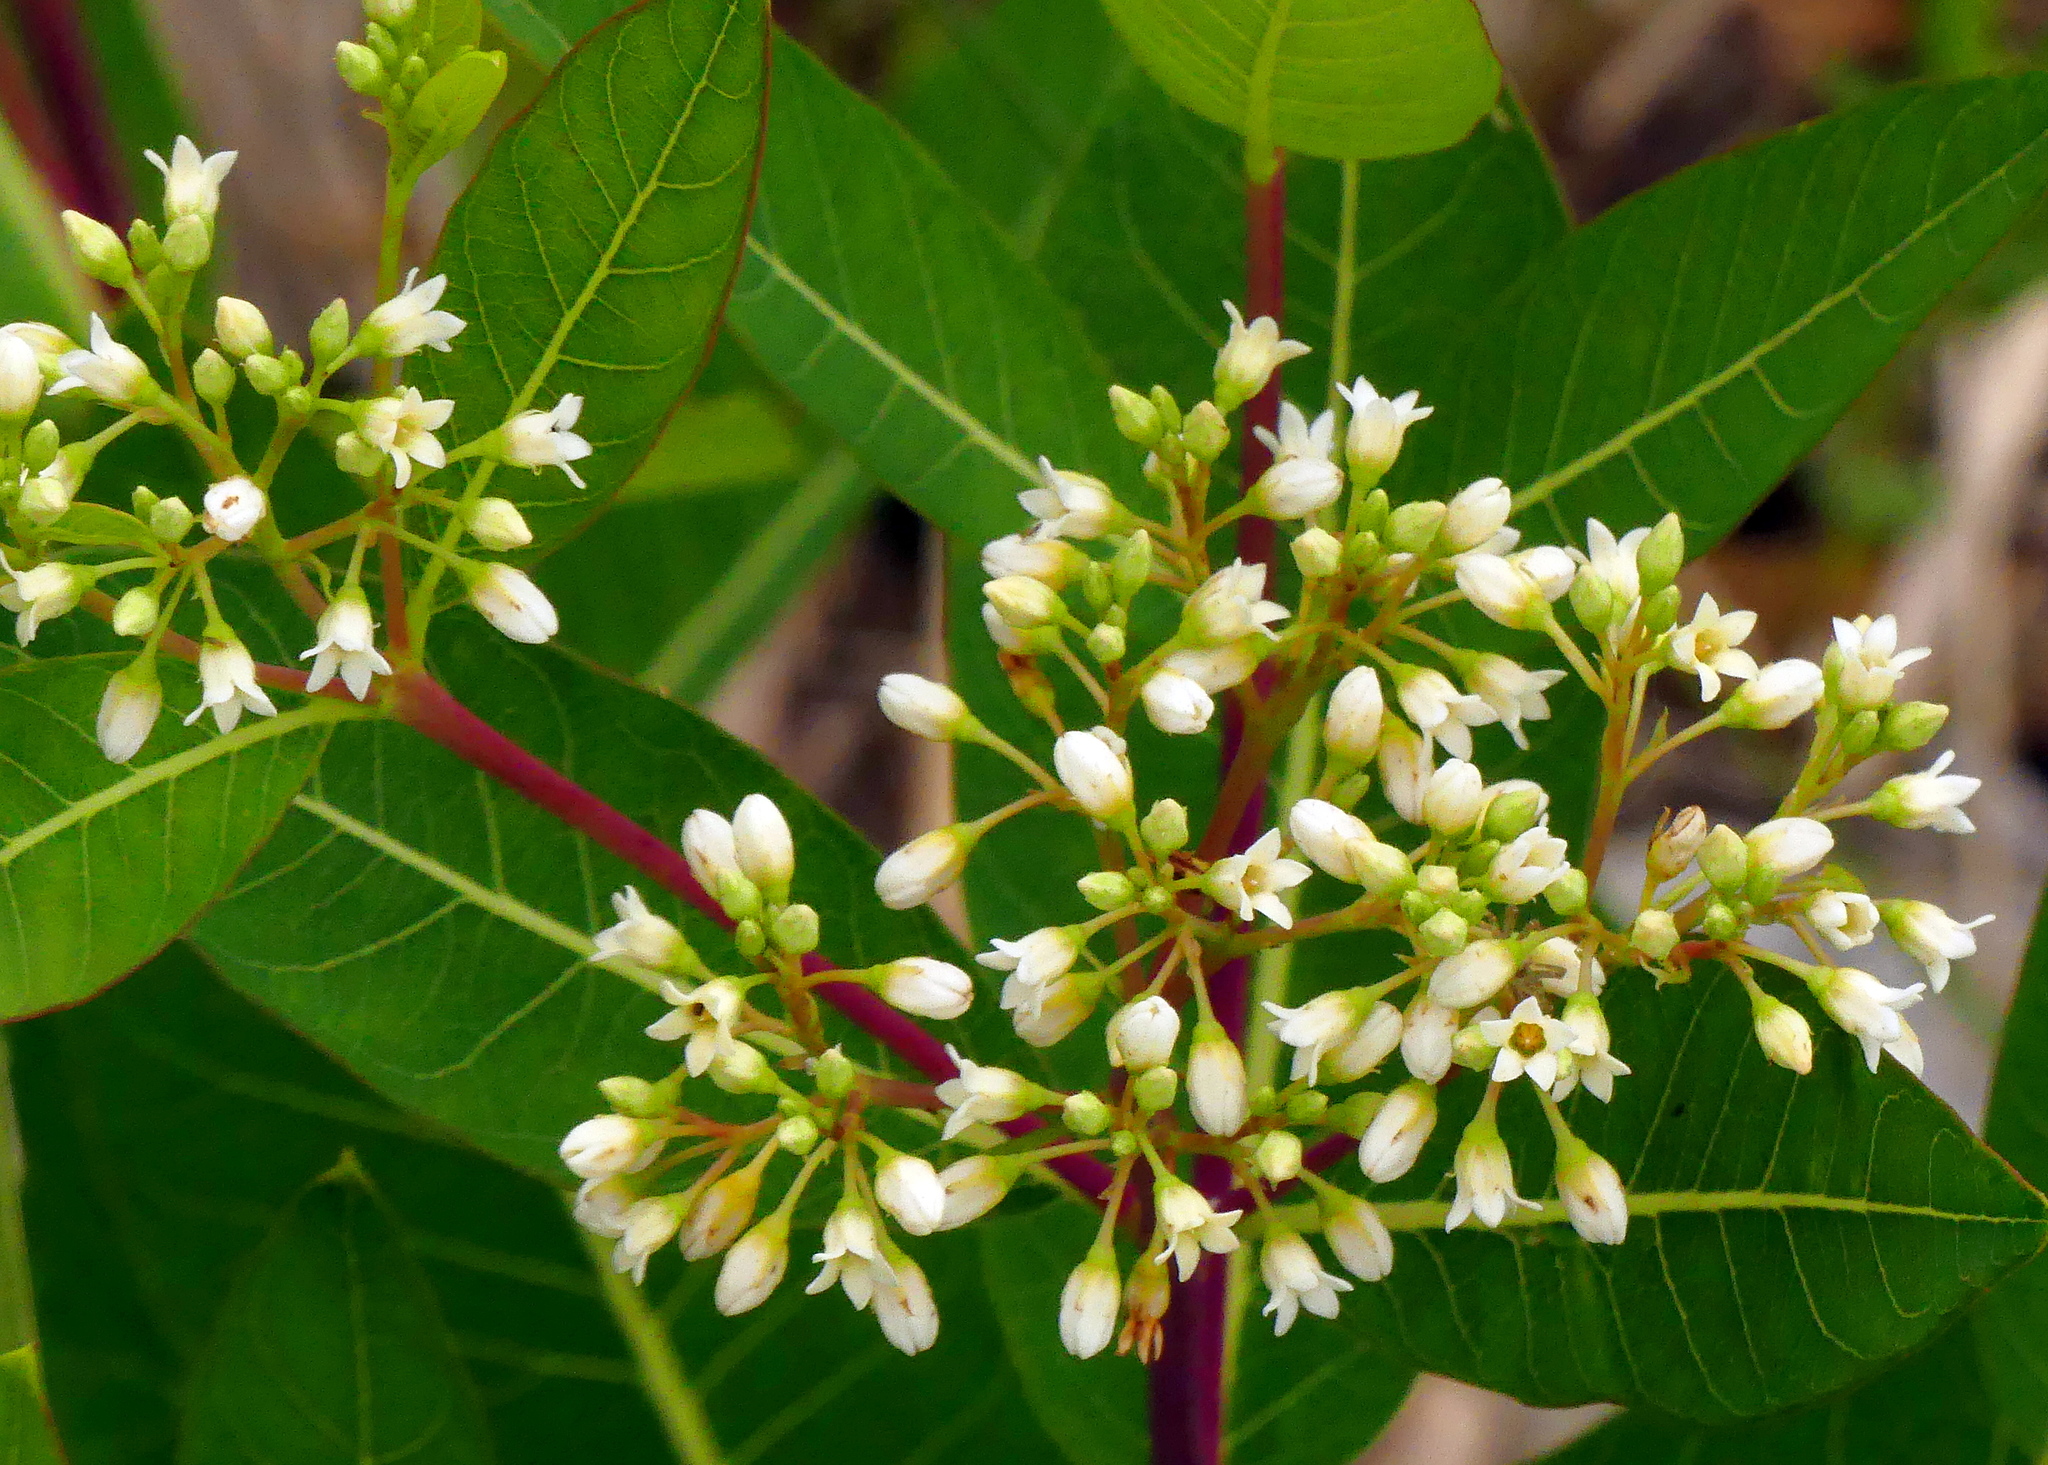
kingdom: Plantae
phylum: Tracheophyta
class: Magnoliopsida
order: Gentianales
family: Apocynaceae
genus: Apocynum
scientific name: Apocynum cannabinum
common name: Hemp dogbane
